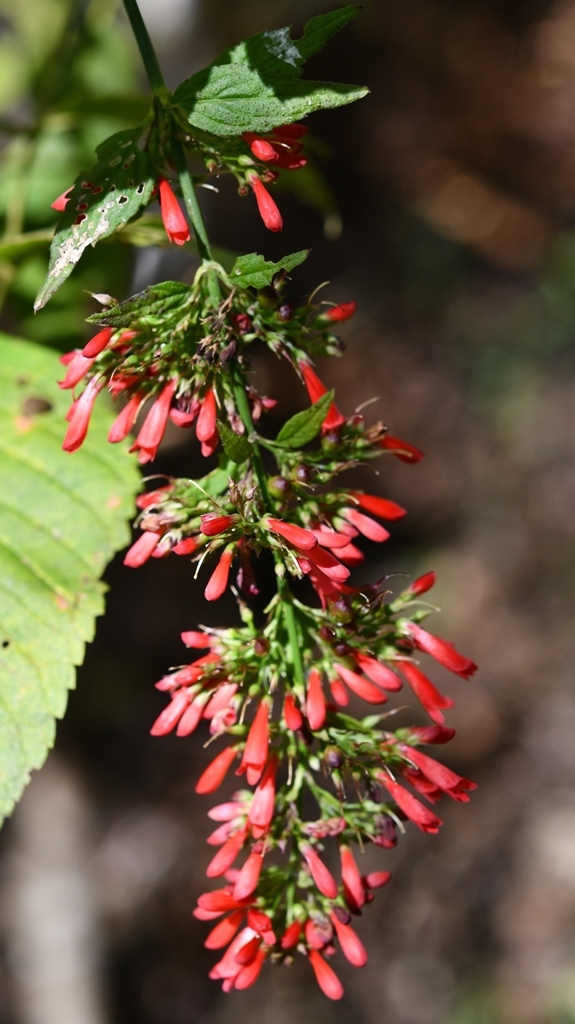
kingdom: Plantae
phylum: Tracheophyta
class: Magnoliopsida
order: Lamiales
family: Plantaginaceae
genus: Russelia
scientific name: Russelia verticillata
